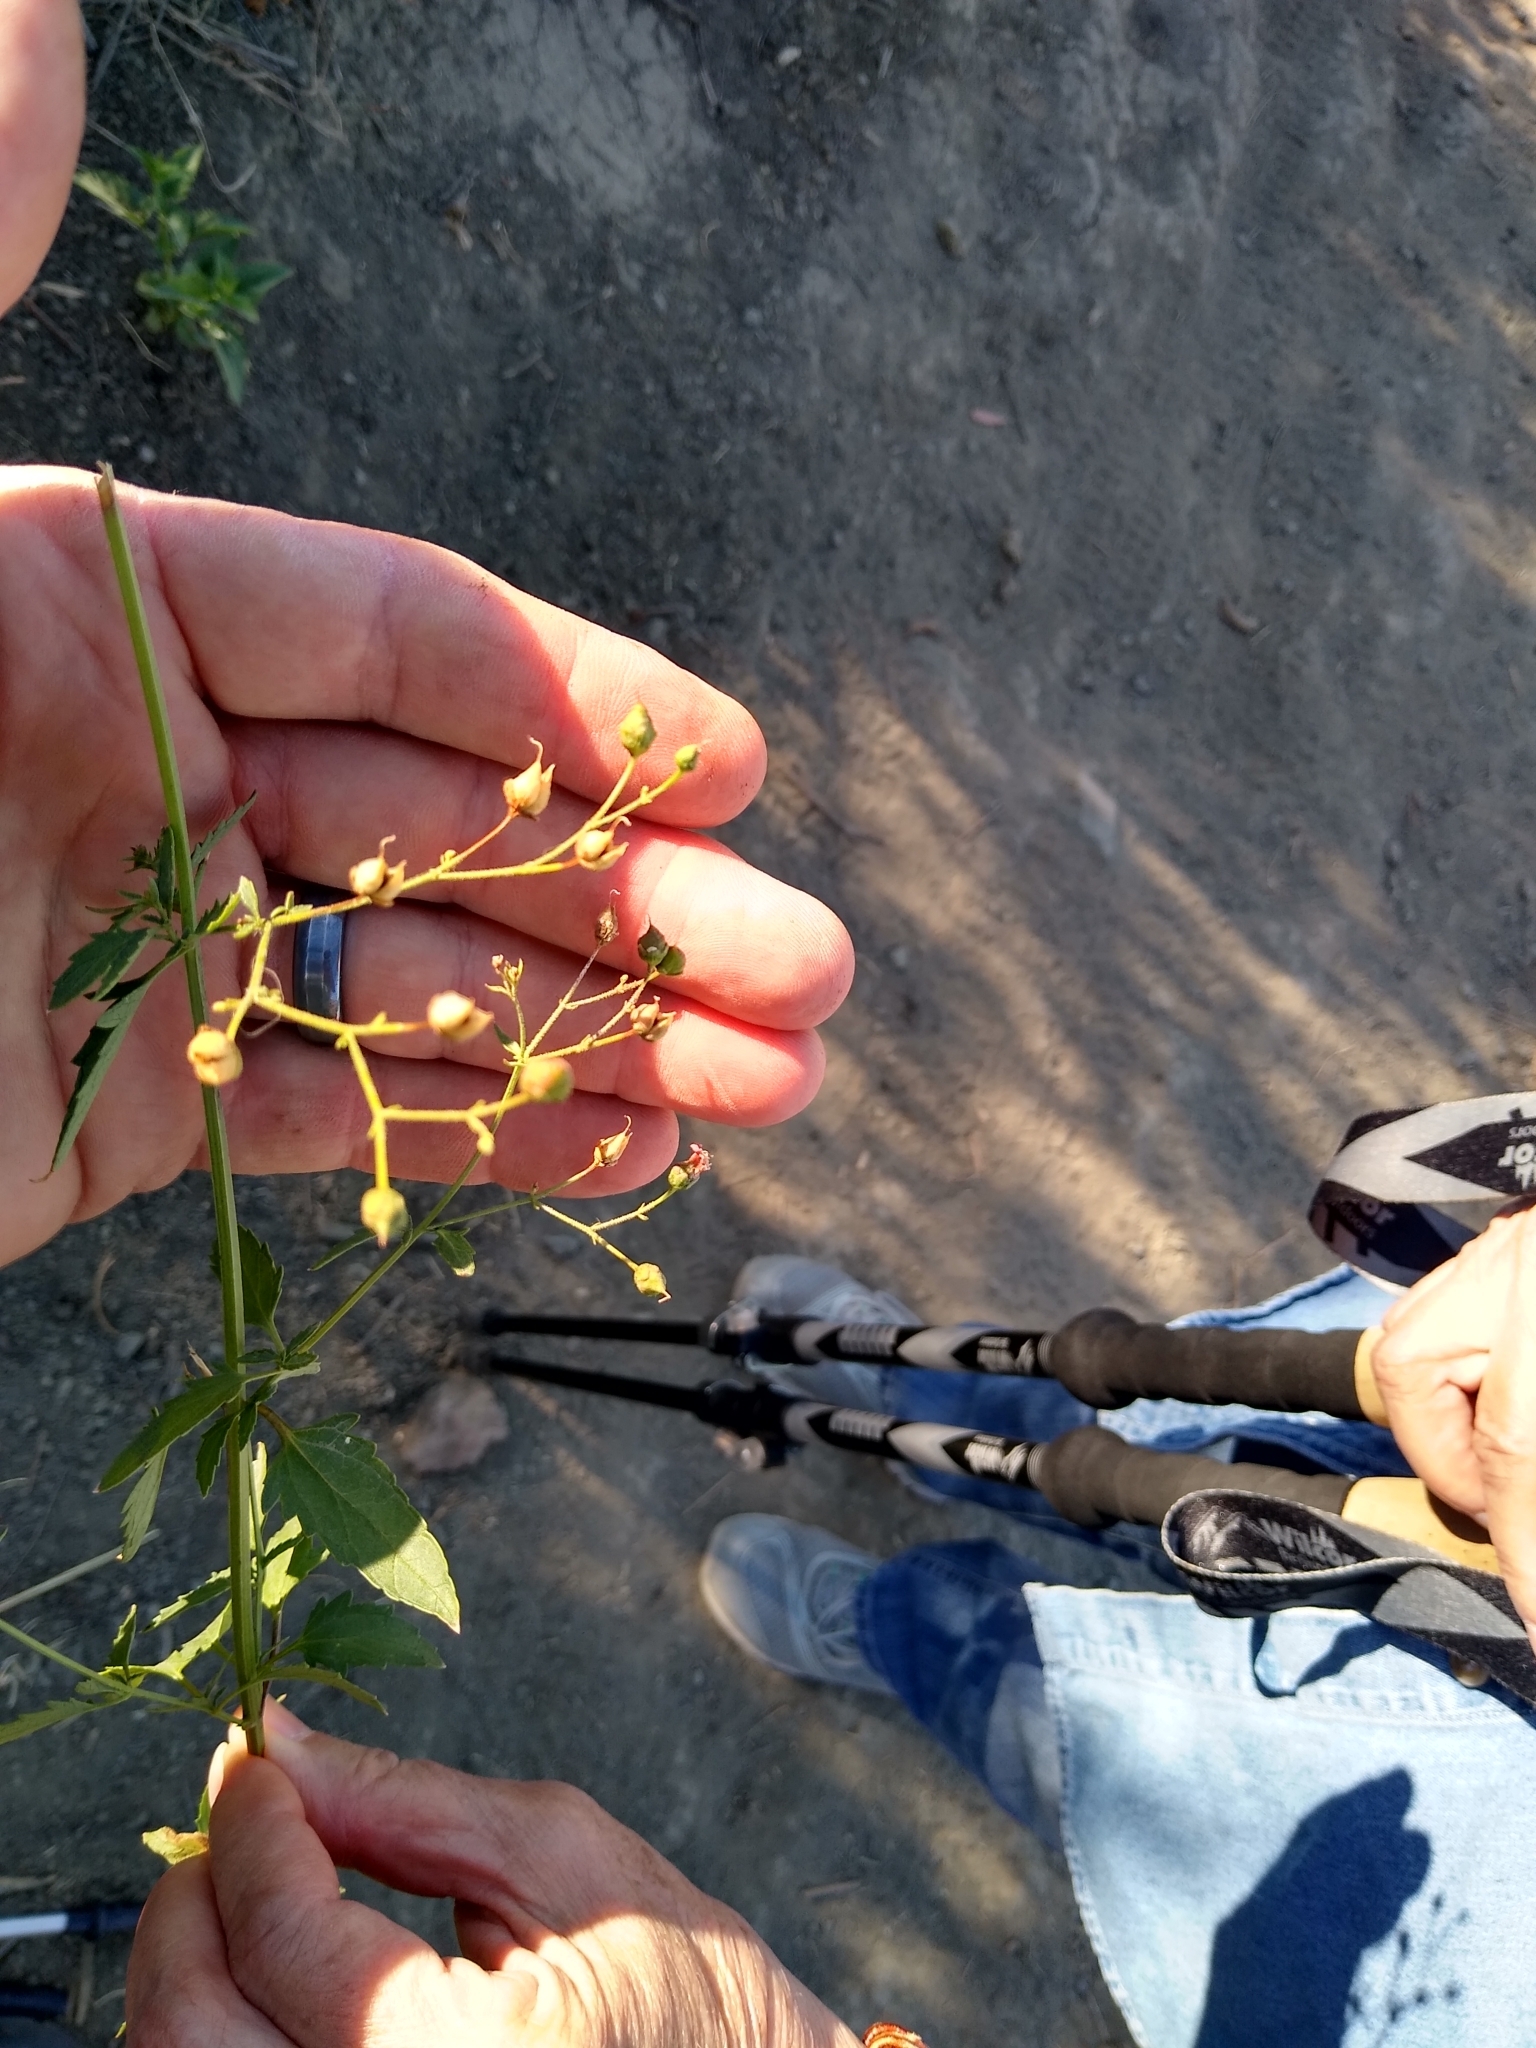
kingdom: Plantae
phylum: Tracheophyta
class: Magnoliopsida
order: Lamiales
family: Scrophulariaceae
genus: Scrophularia
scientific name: Scrophularia californica
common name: California figwort
